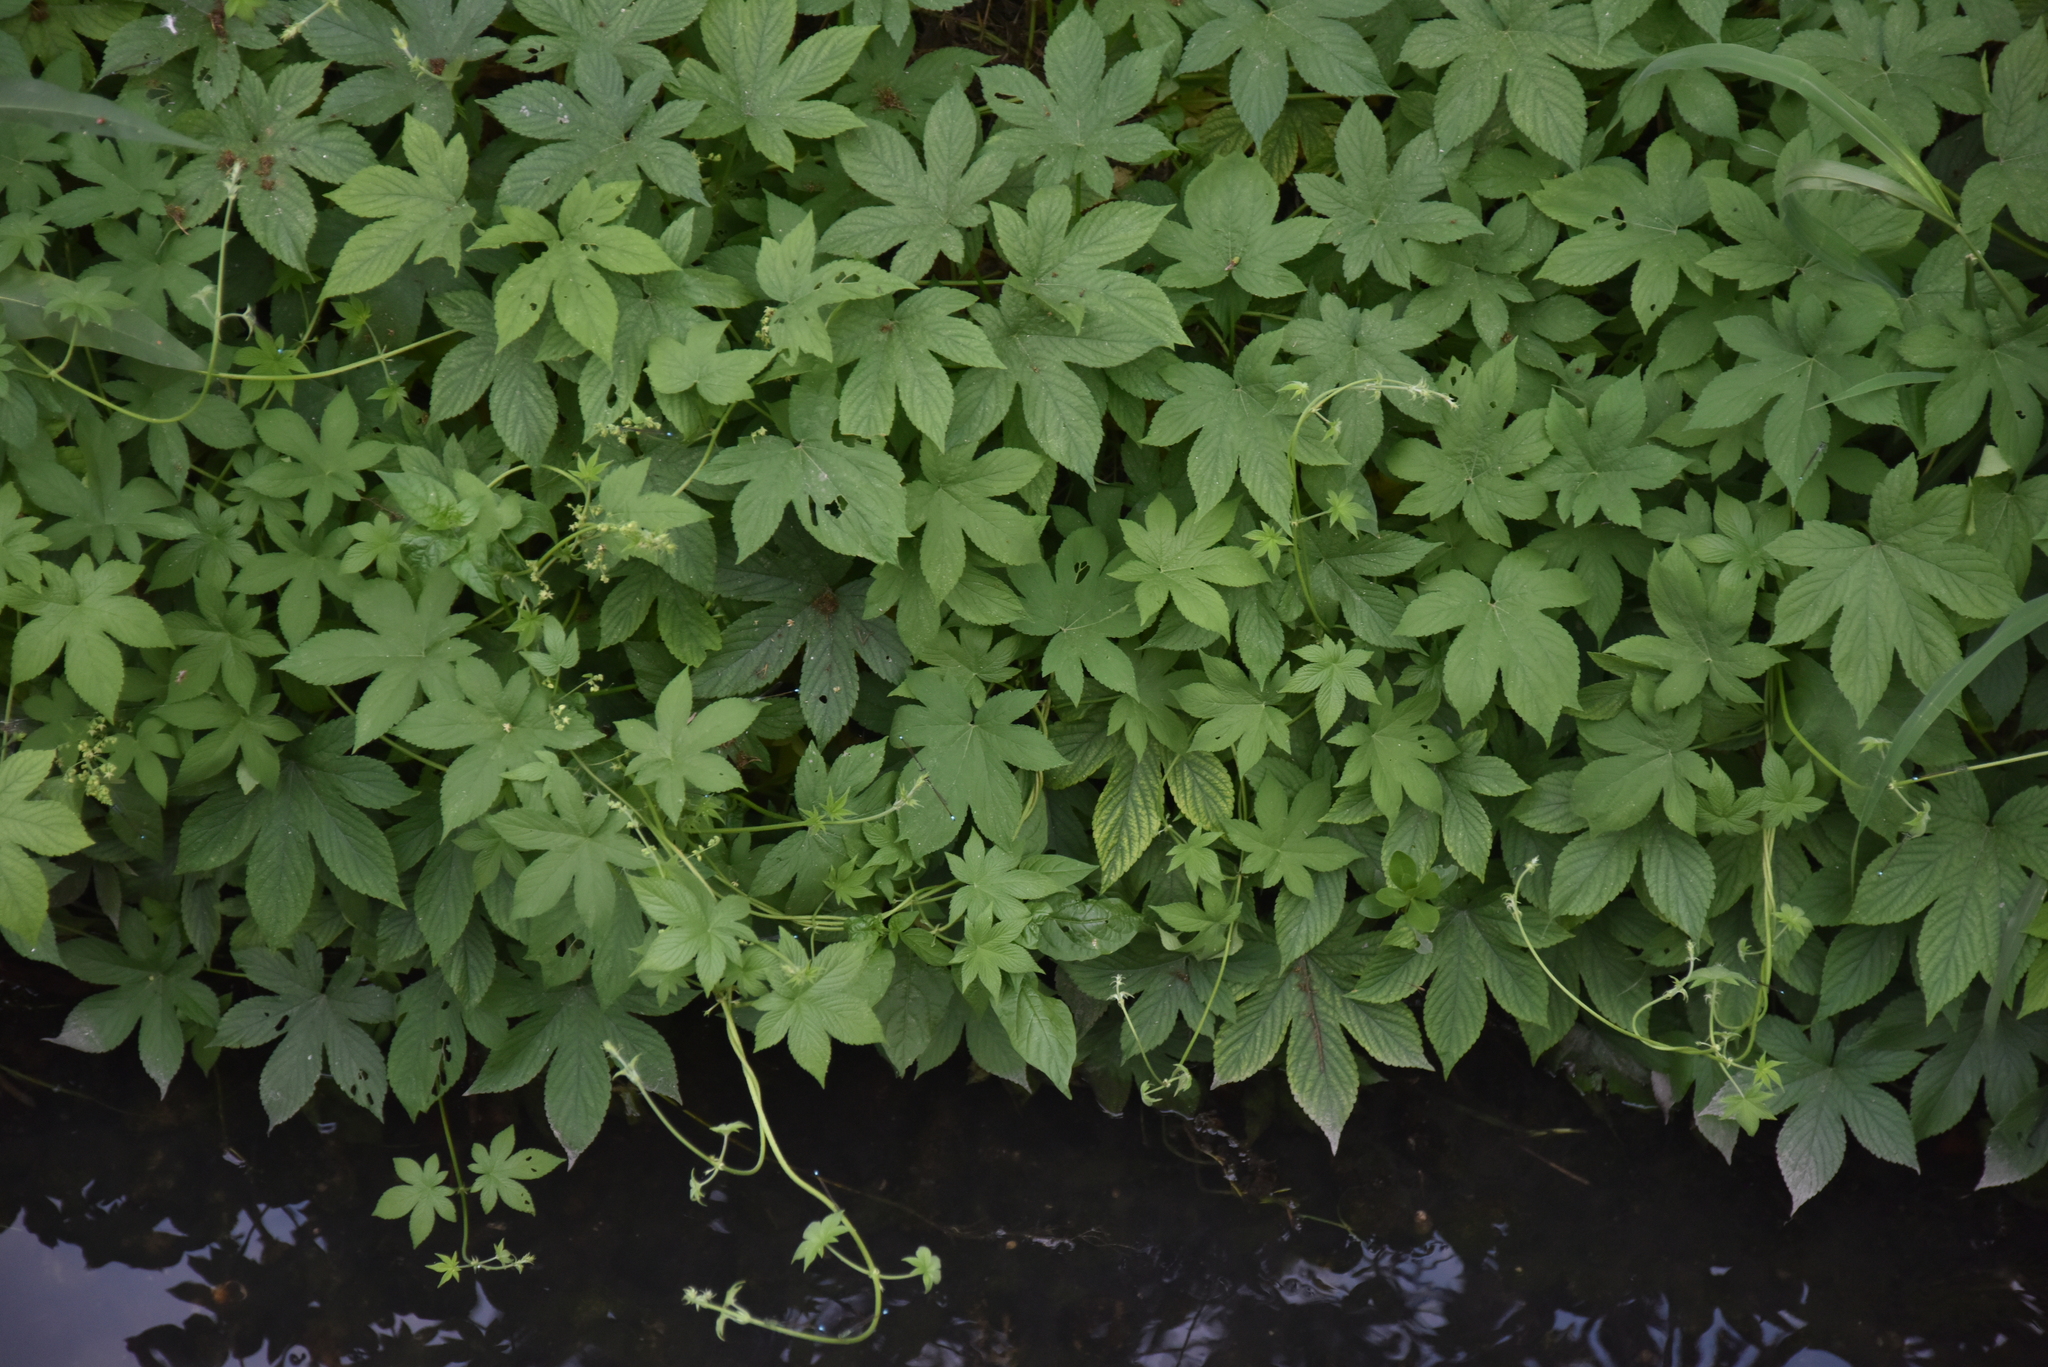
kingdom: Plantae
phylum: Tracheophyta
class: Magnoliopsida
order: Rosales
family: Cannabaceae
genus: Humulus
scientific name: Humulus scandens
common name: Japanese hop
